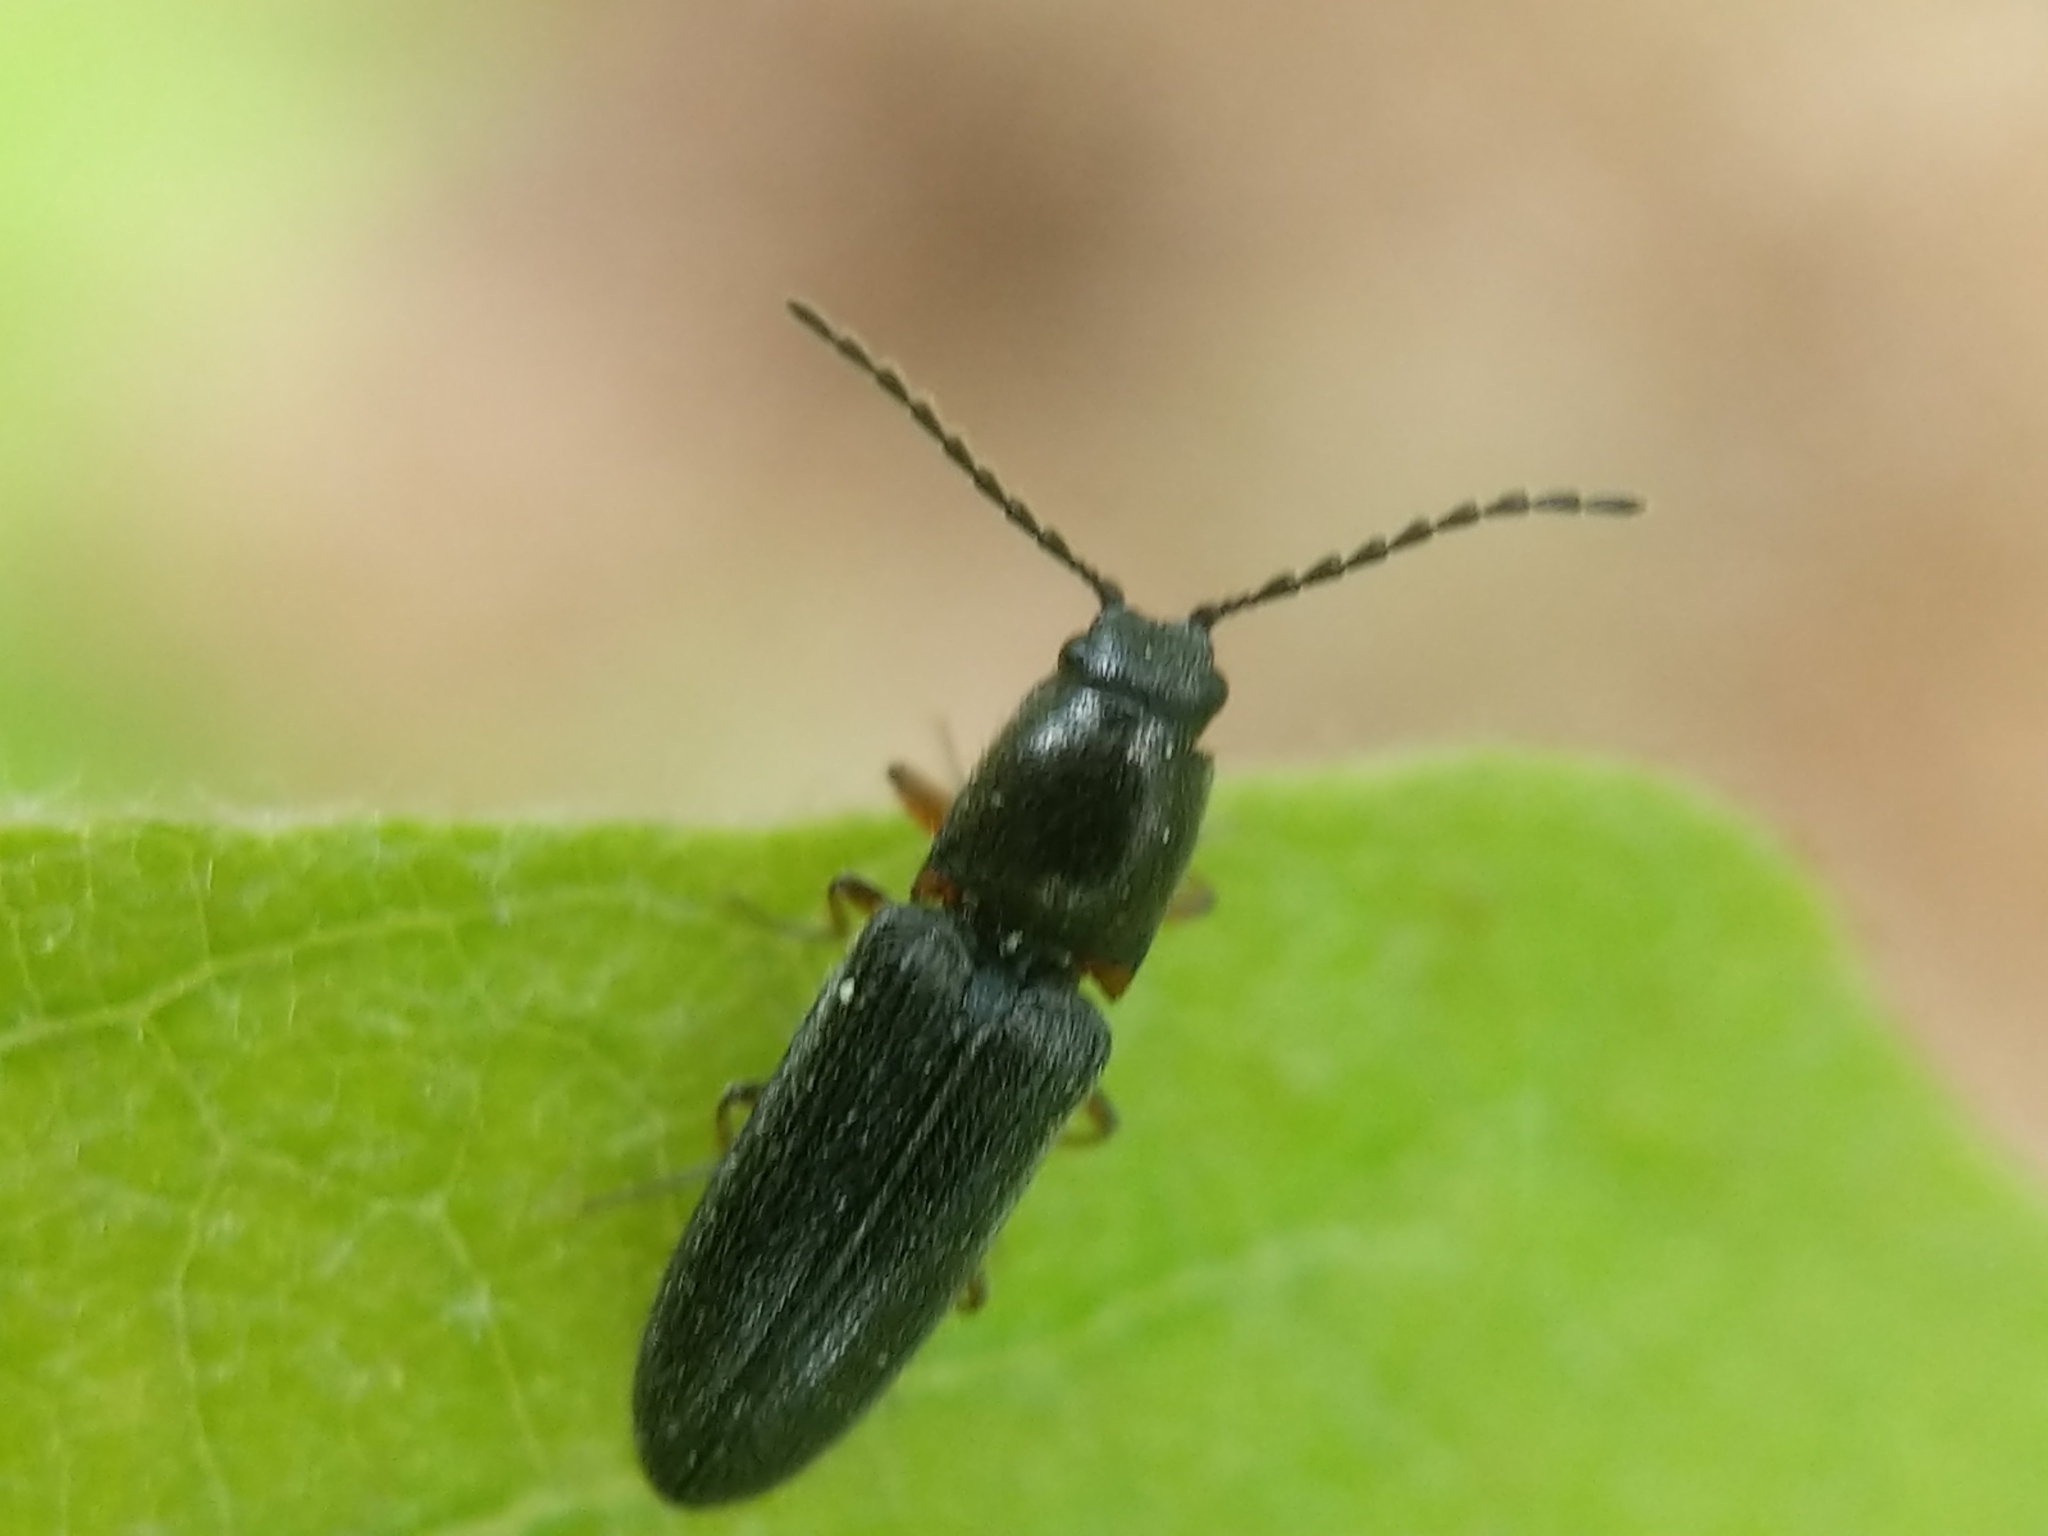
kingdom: Animalia
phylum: Arthropoda
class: Insecta
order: Coleoptera
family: Elateridae
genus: Limonius
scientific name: Limonius basilaris
